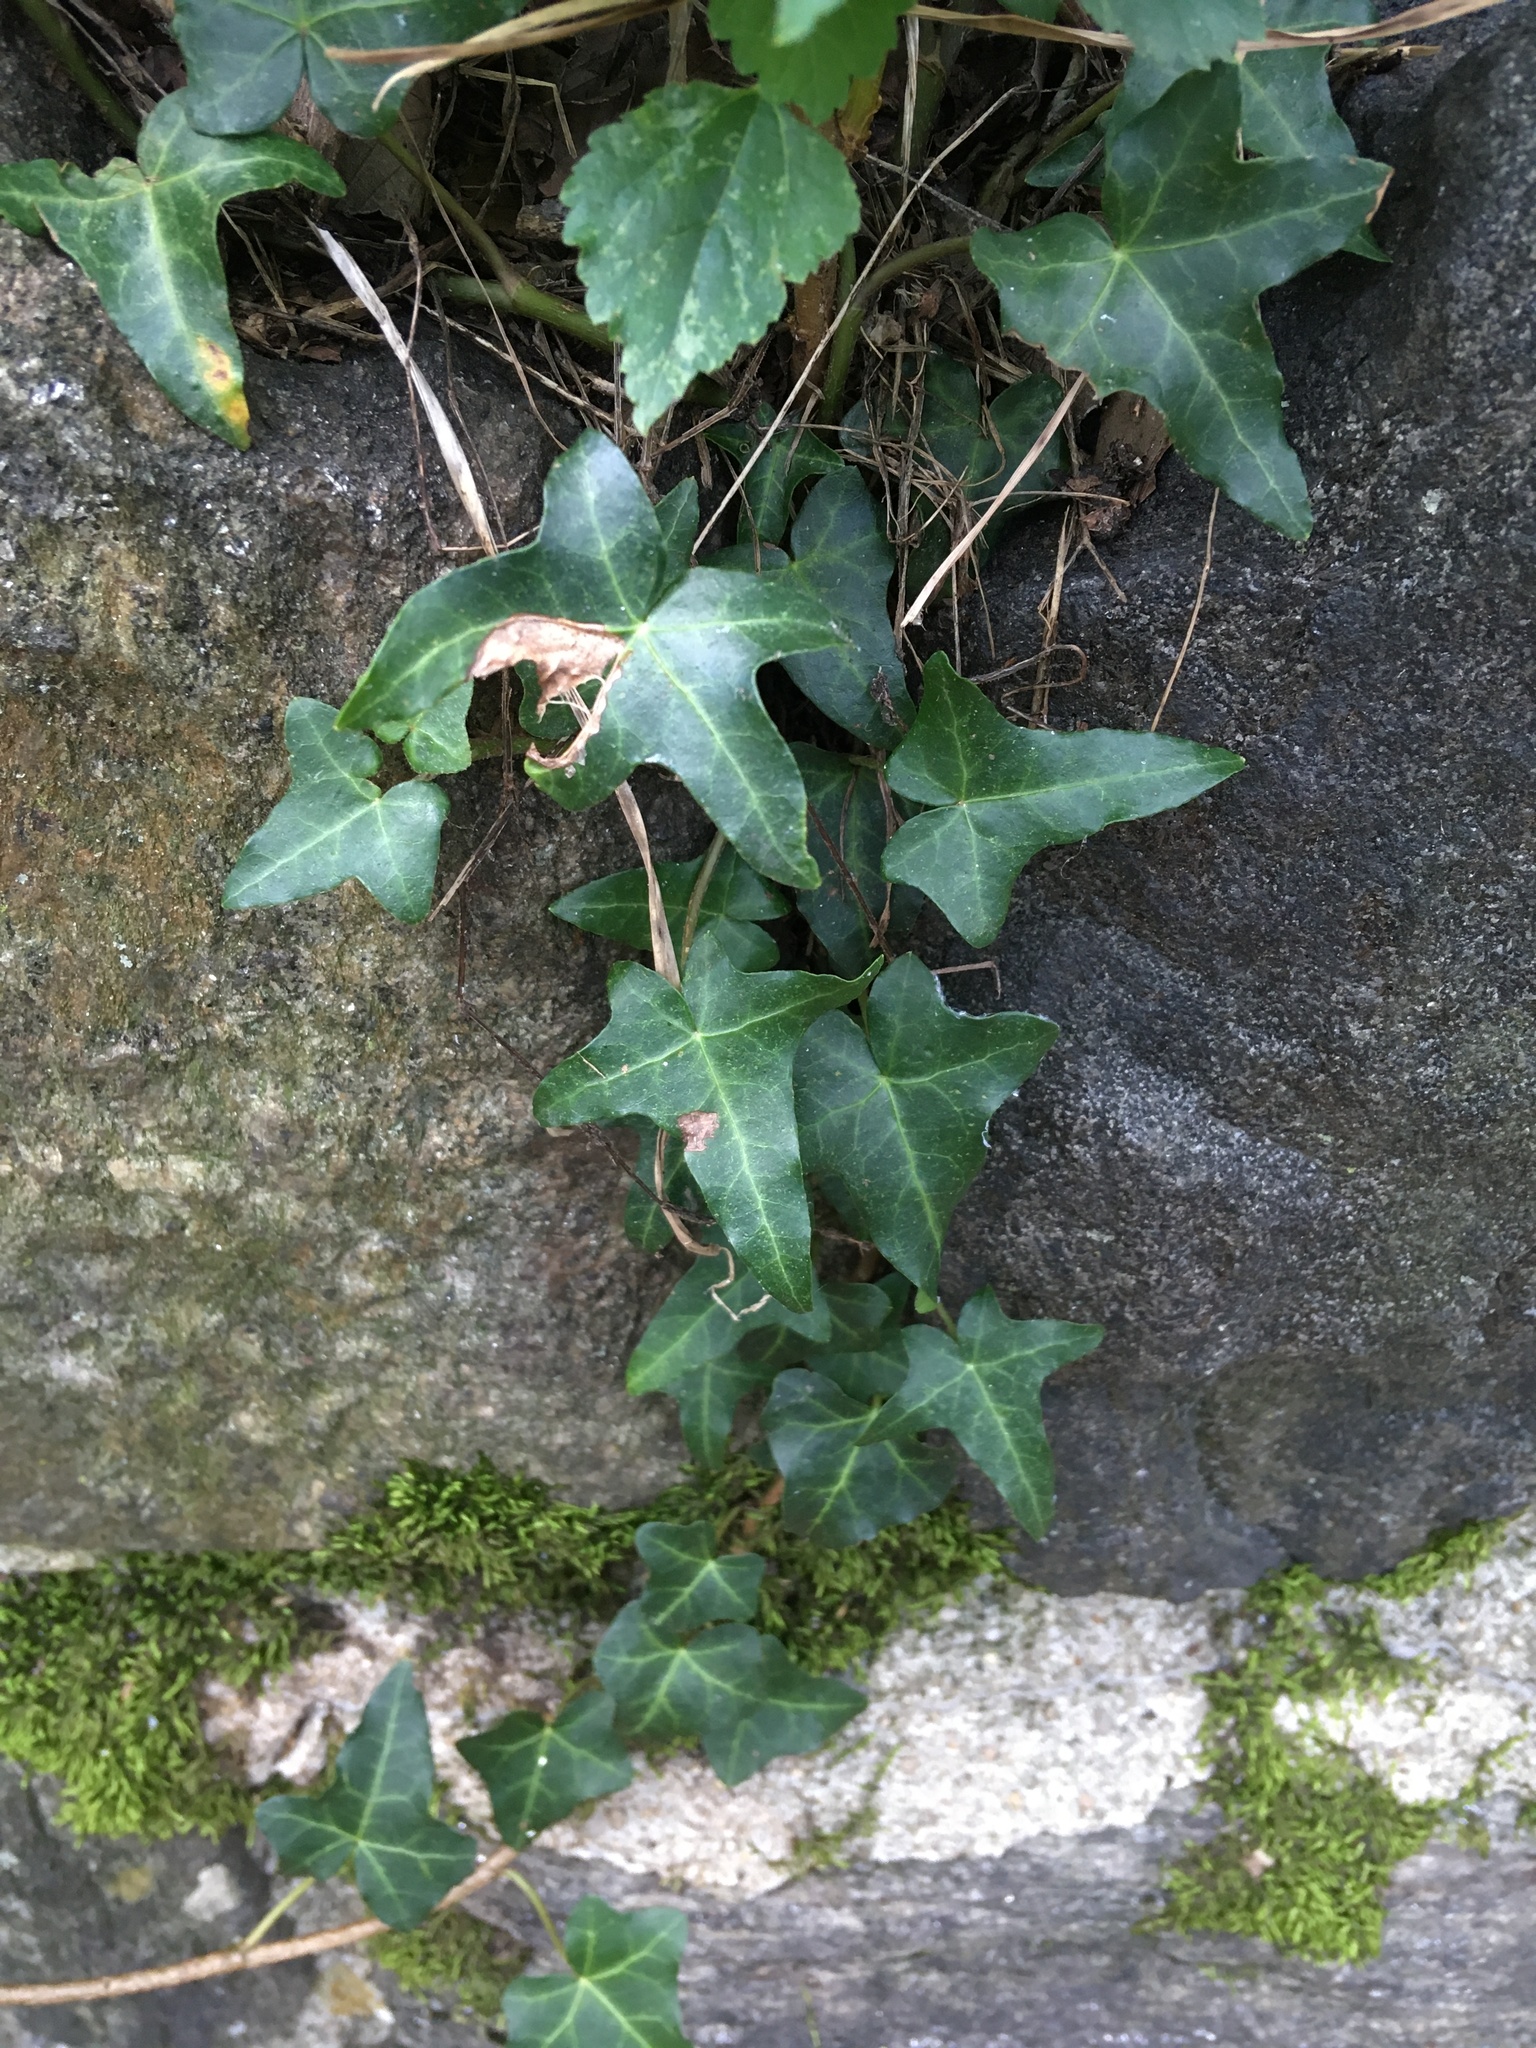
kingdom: Plantae
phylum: Tracheophyta
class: Magnoliopsida
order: Apiales
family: Araliaceae
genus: Hedera
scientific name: Hedera helix
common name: Ivy
